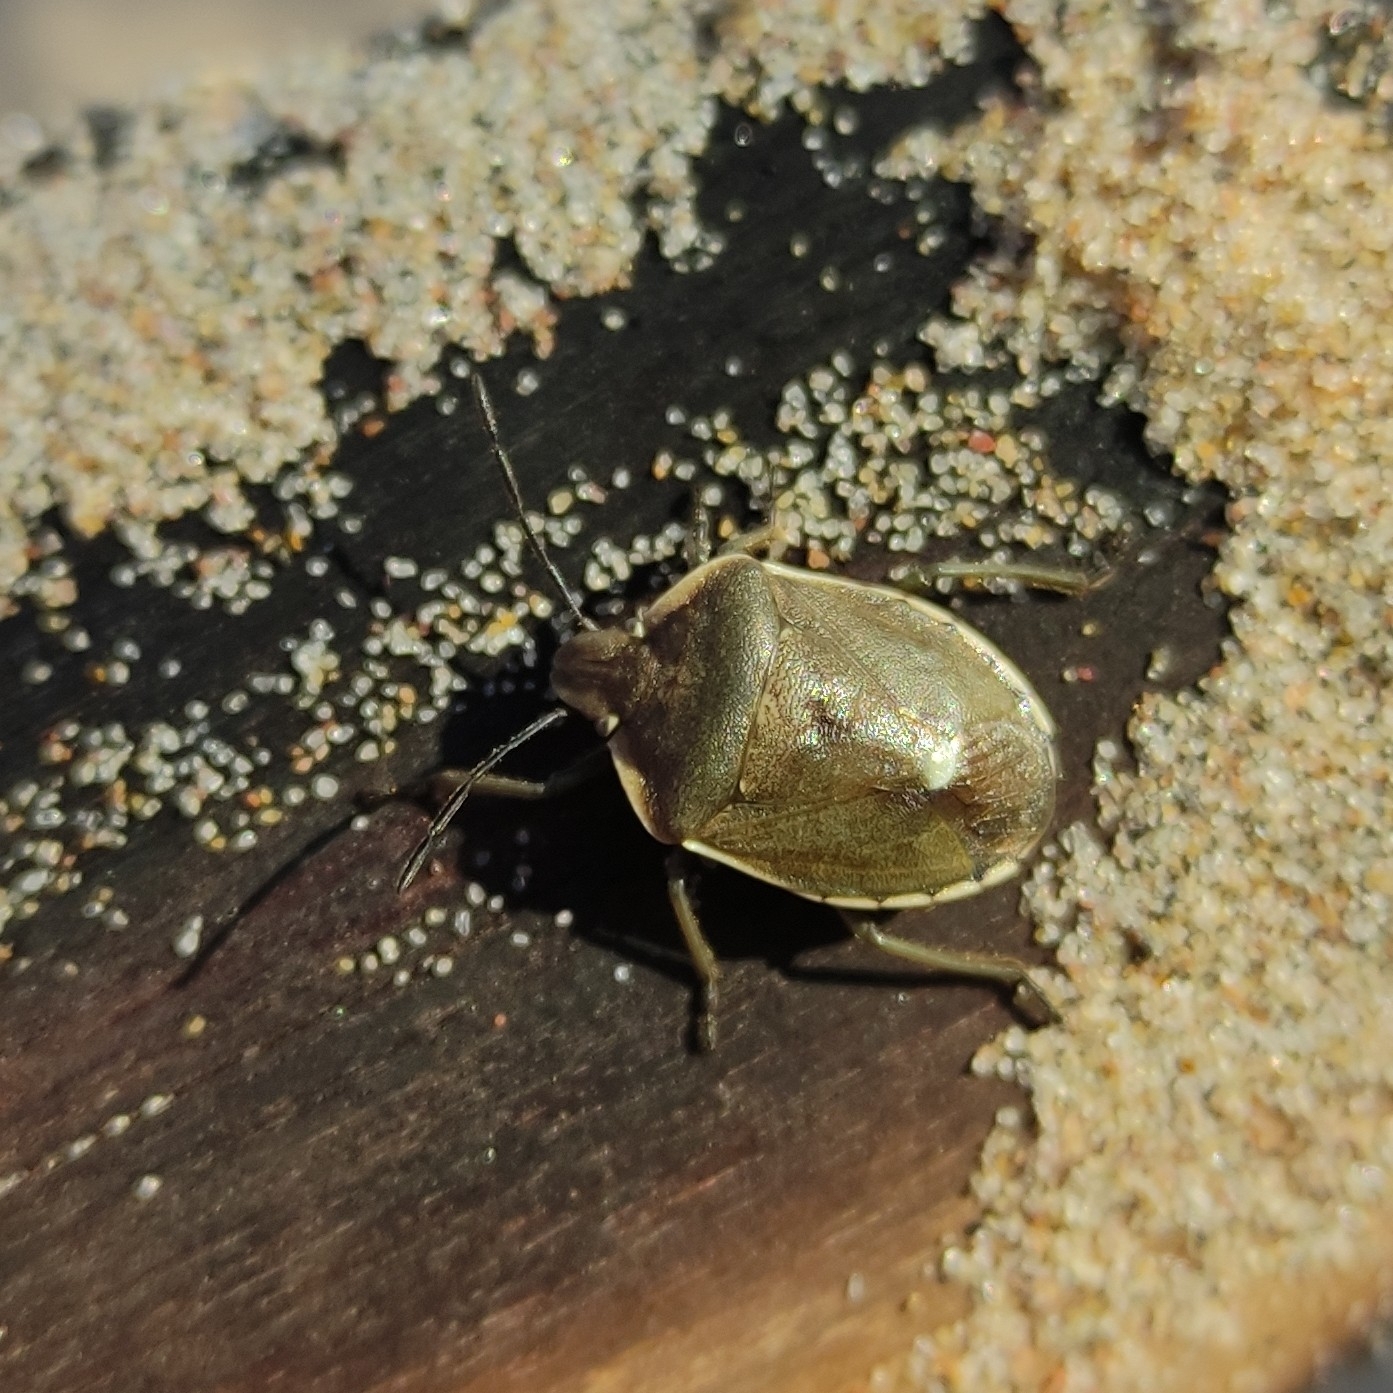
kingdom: Animalia
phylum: Arthropoda
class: Insecta
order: Hemiptera
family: Pentatomidae
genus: Chlorochroa
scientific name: Chlorochroa pinicola
